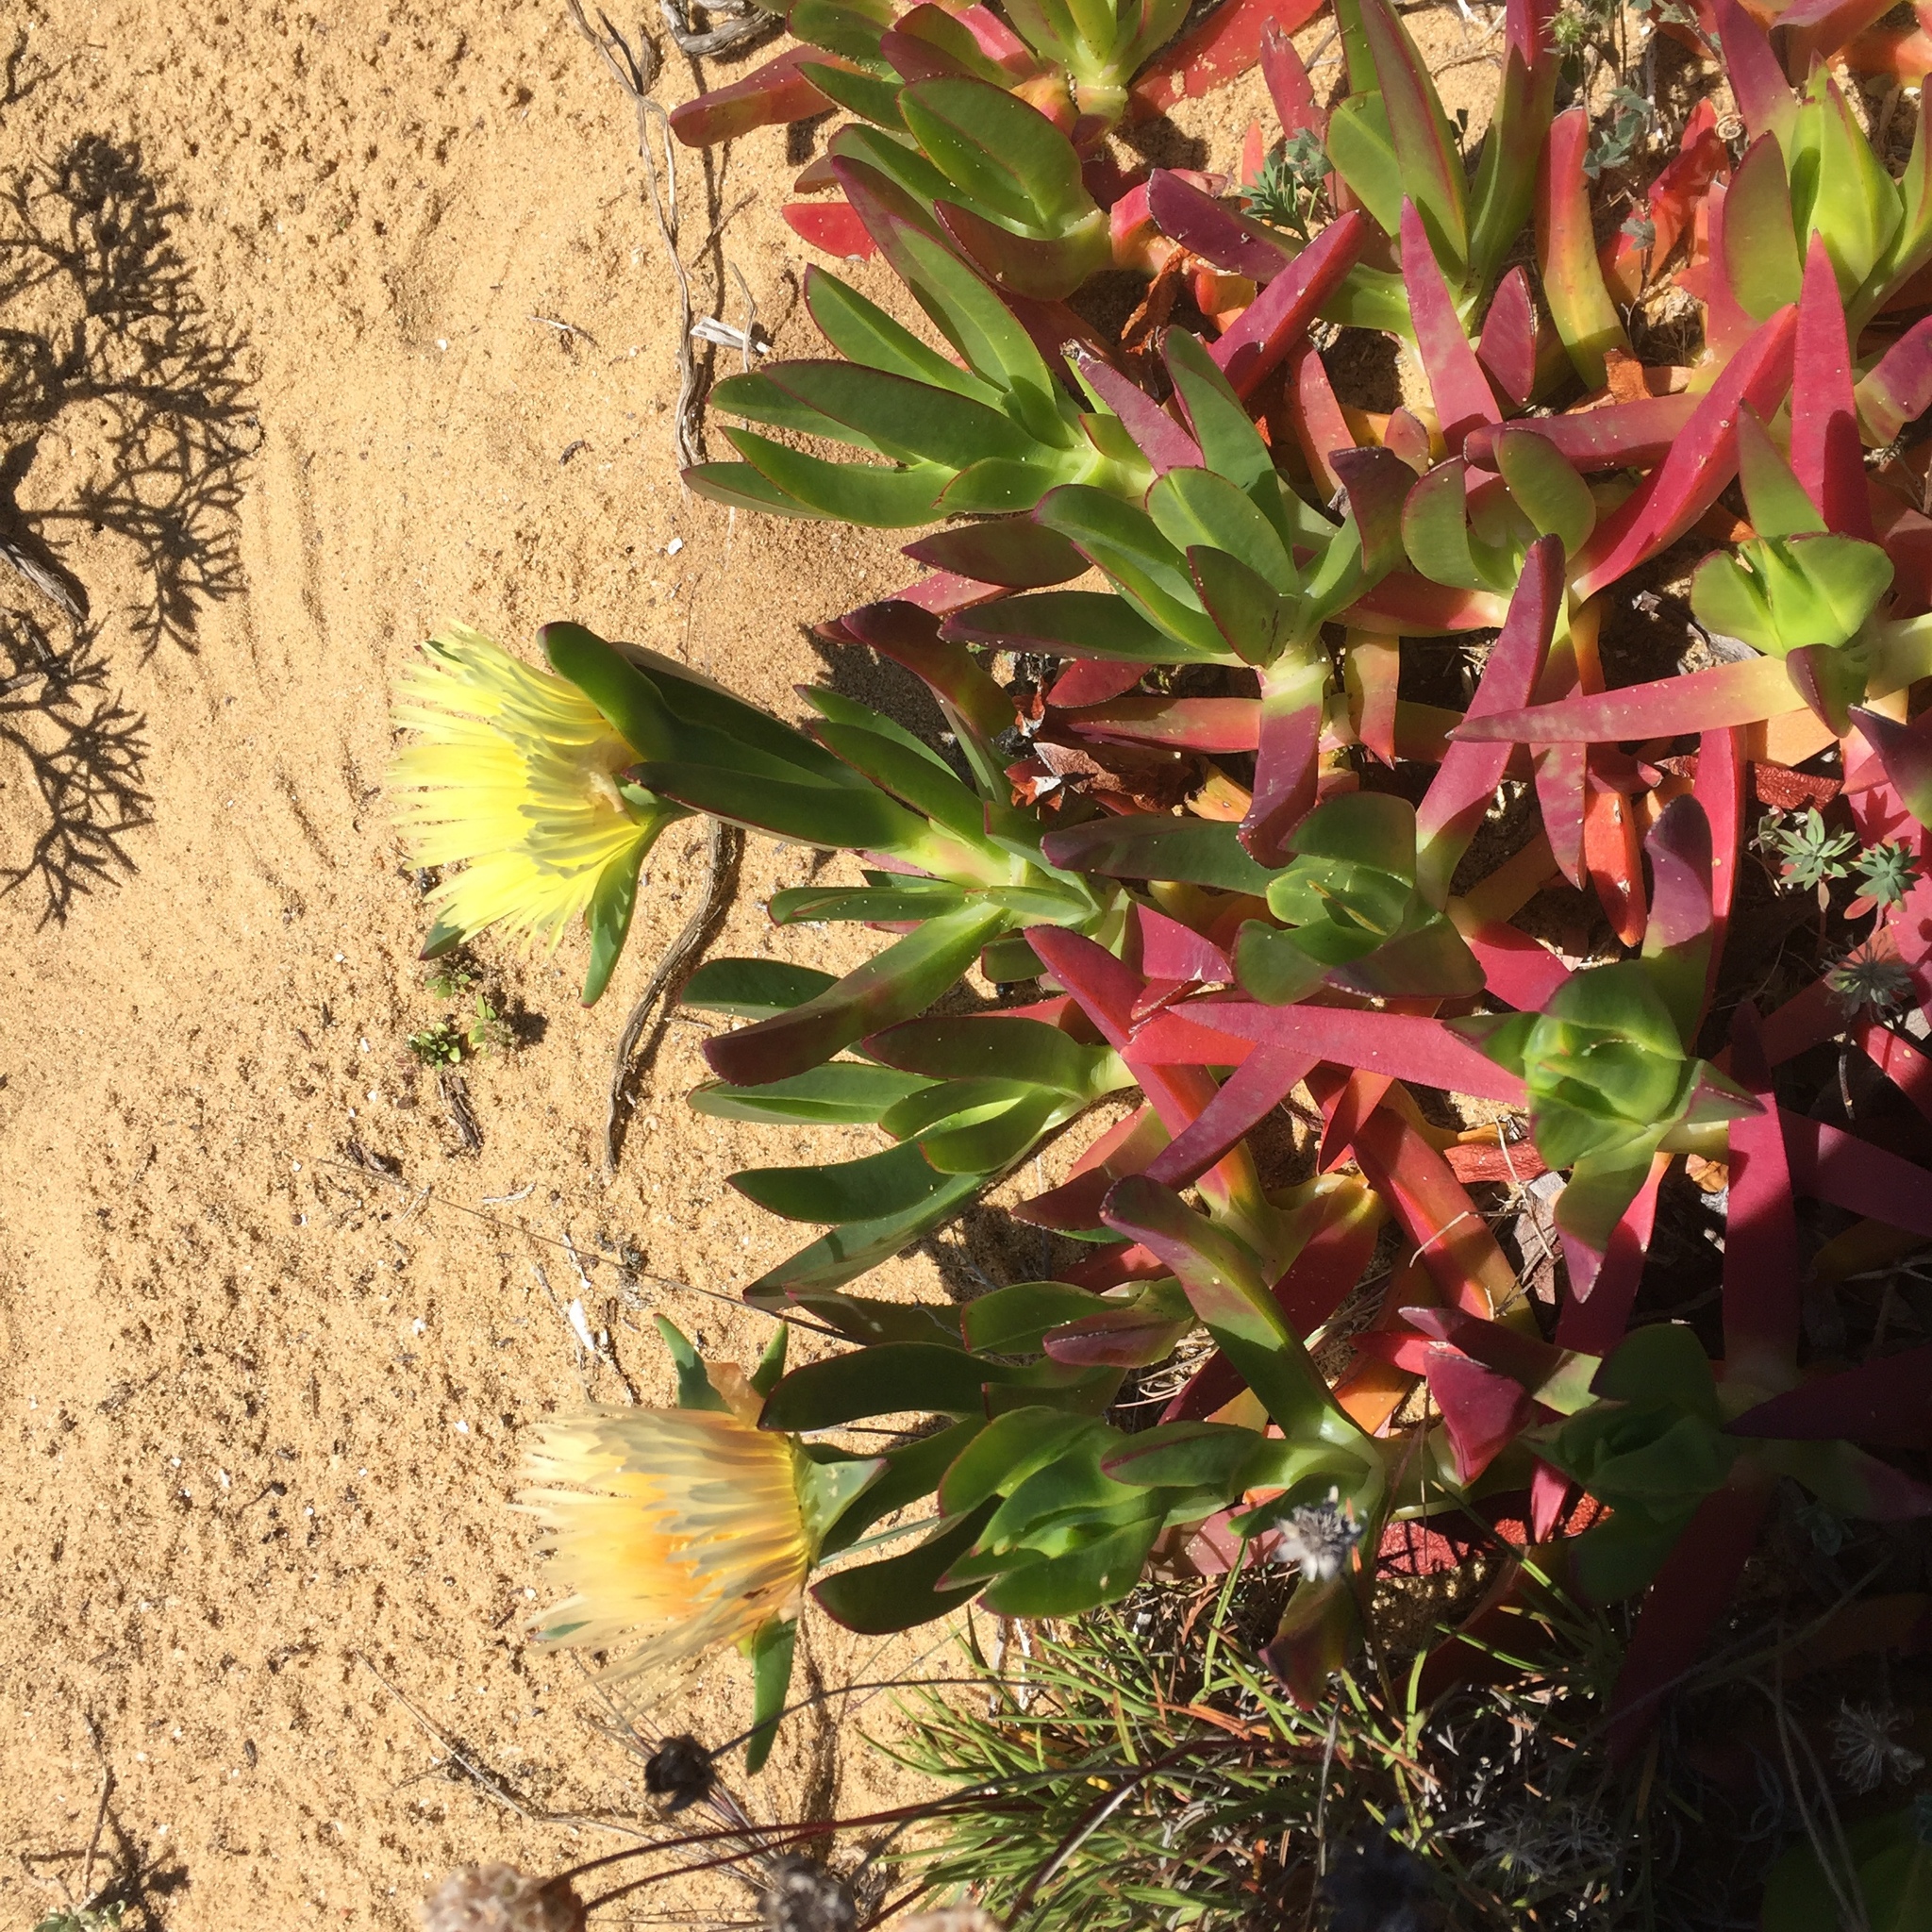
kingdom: Plantae
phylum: Tracheophyta
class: Magnoliopsida
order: Caryophyllales
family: Aizoaceae
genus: Carpobrotus
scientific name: Carpobrotus edulis
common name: Hottentot-fig
